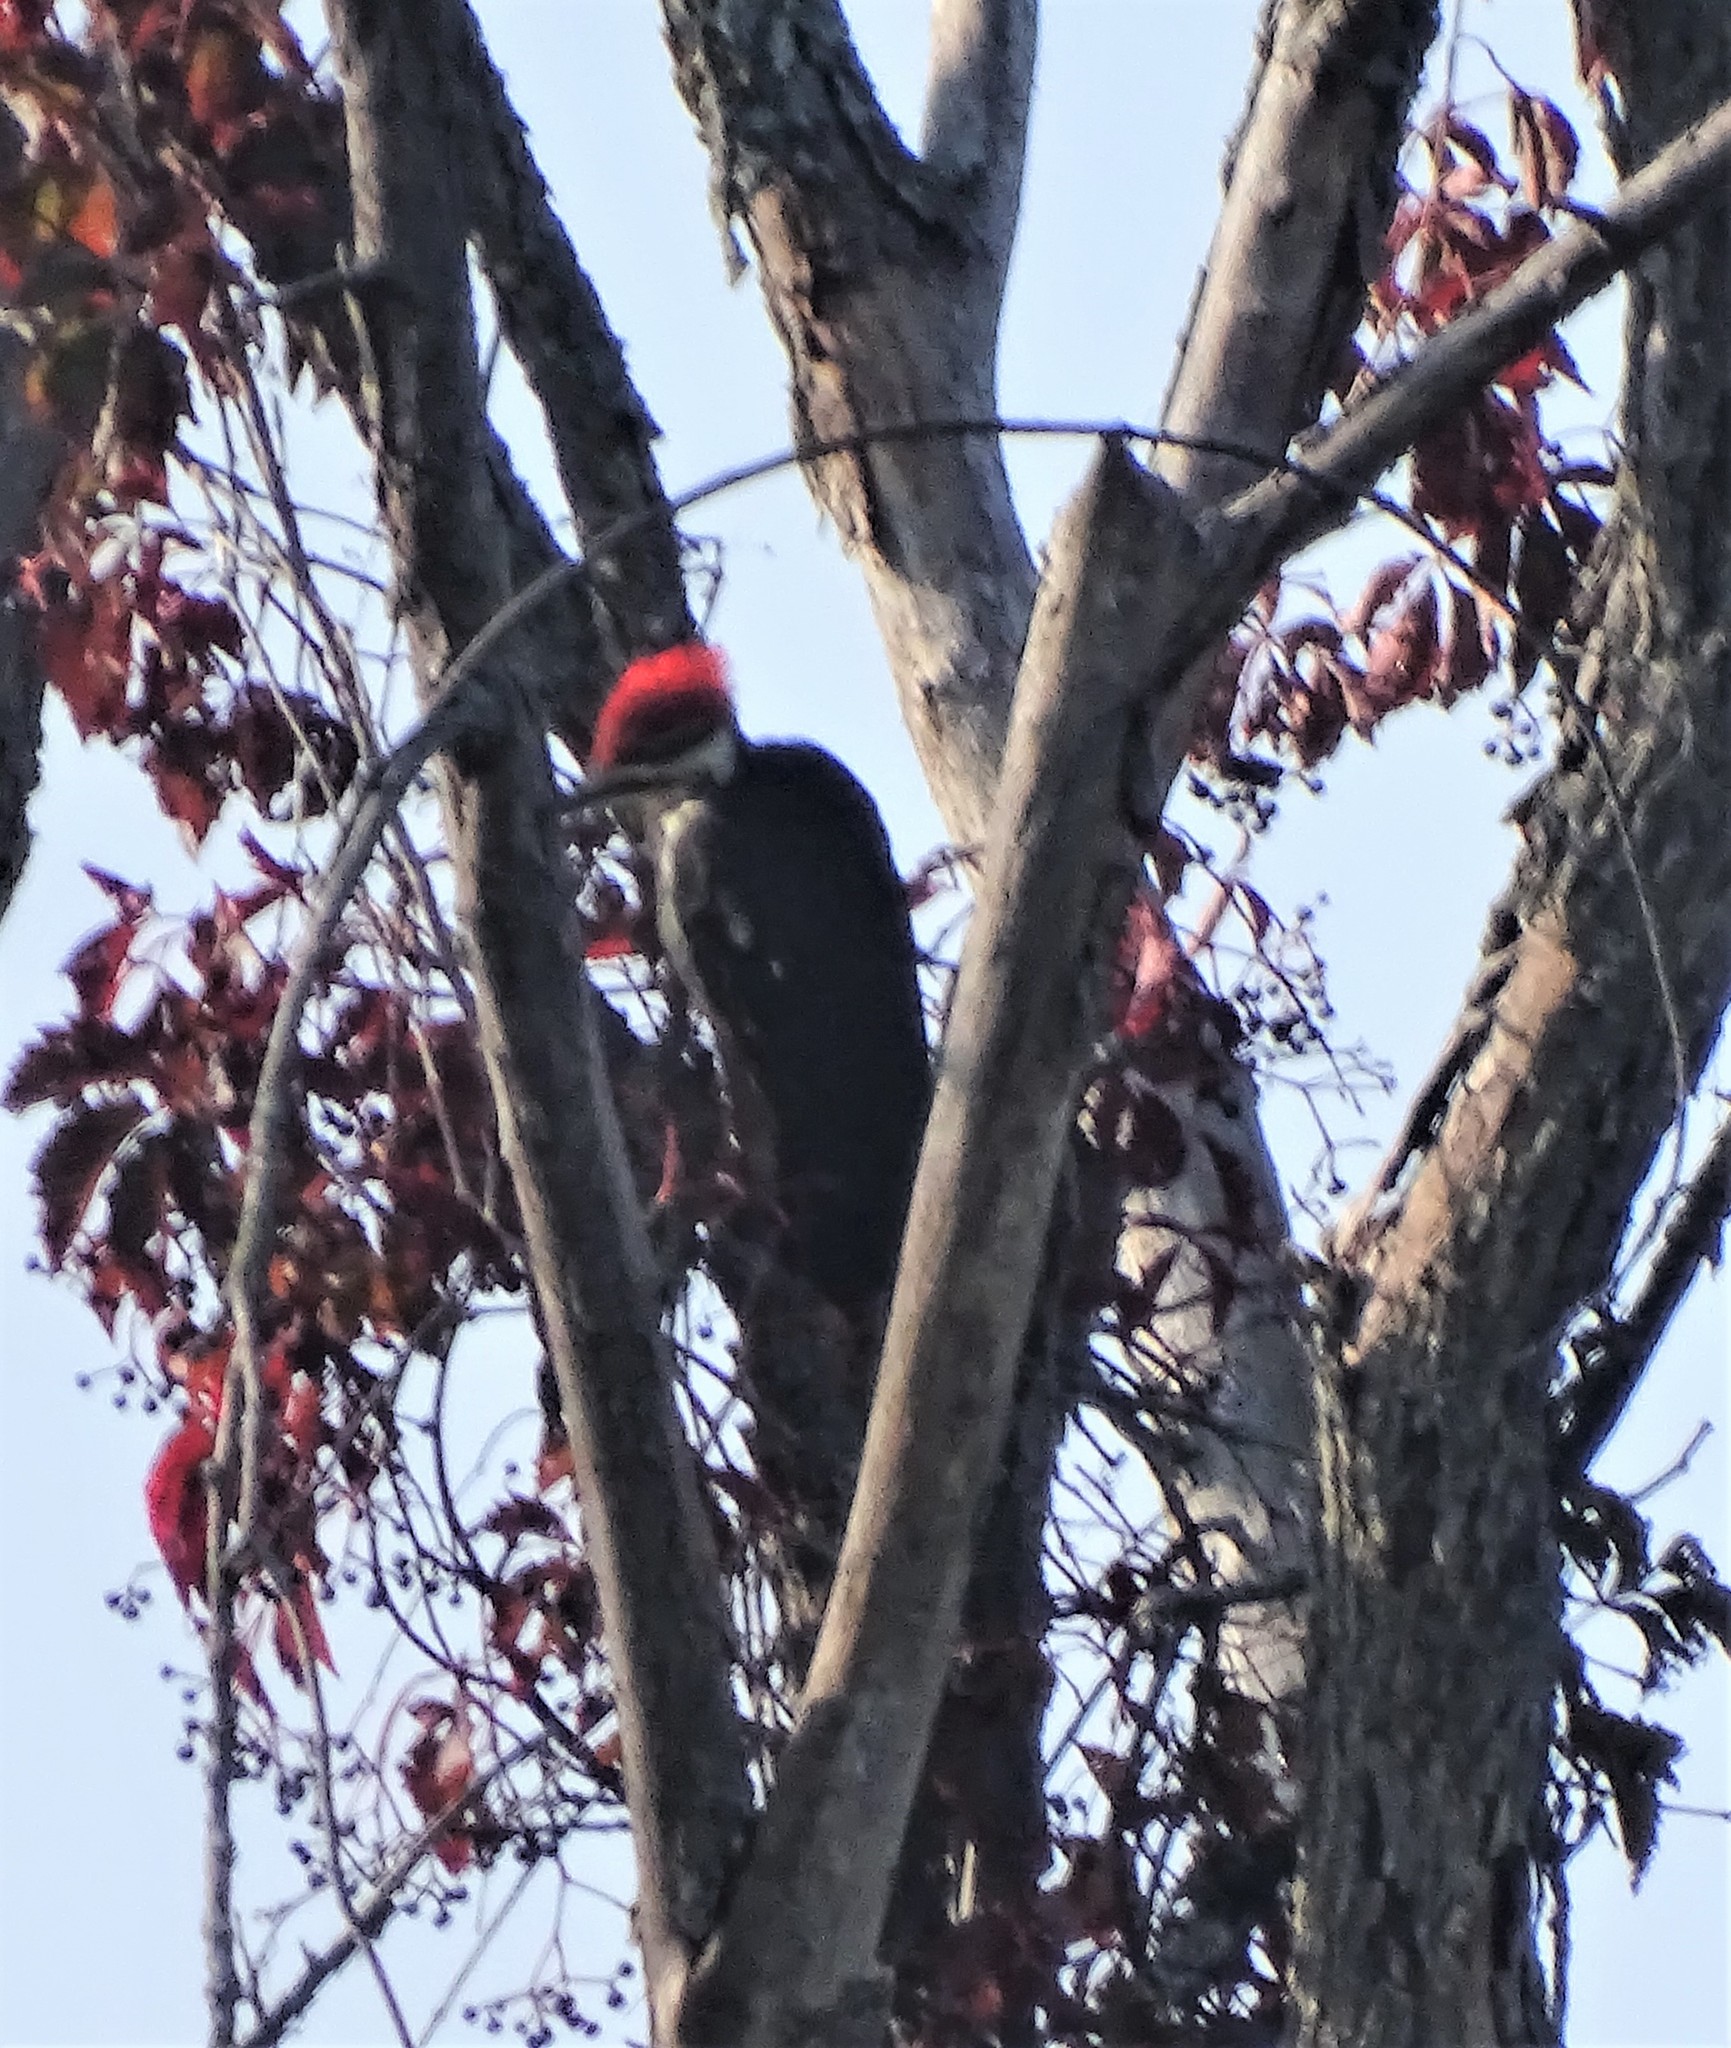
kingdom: Animalia
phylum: Chordata
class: Aves
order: Piciformes
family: Picidae
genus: Dryocopus
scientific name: Dryocopus pileatus
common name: Pileated woodpecker
